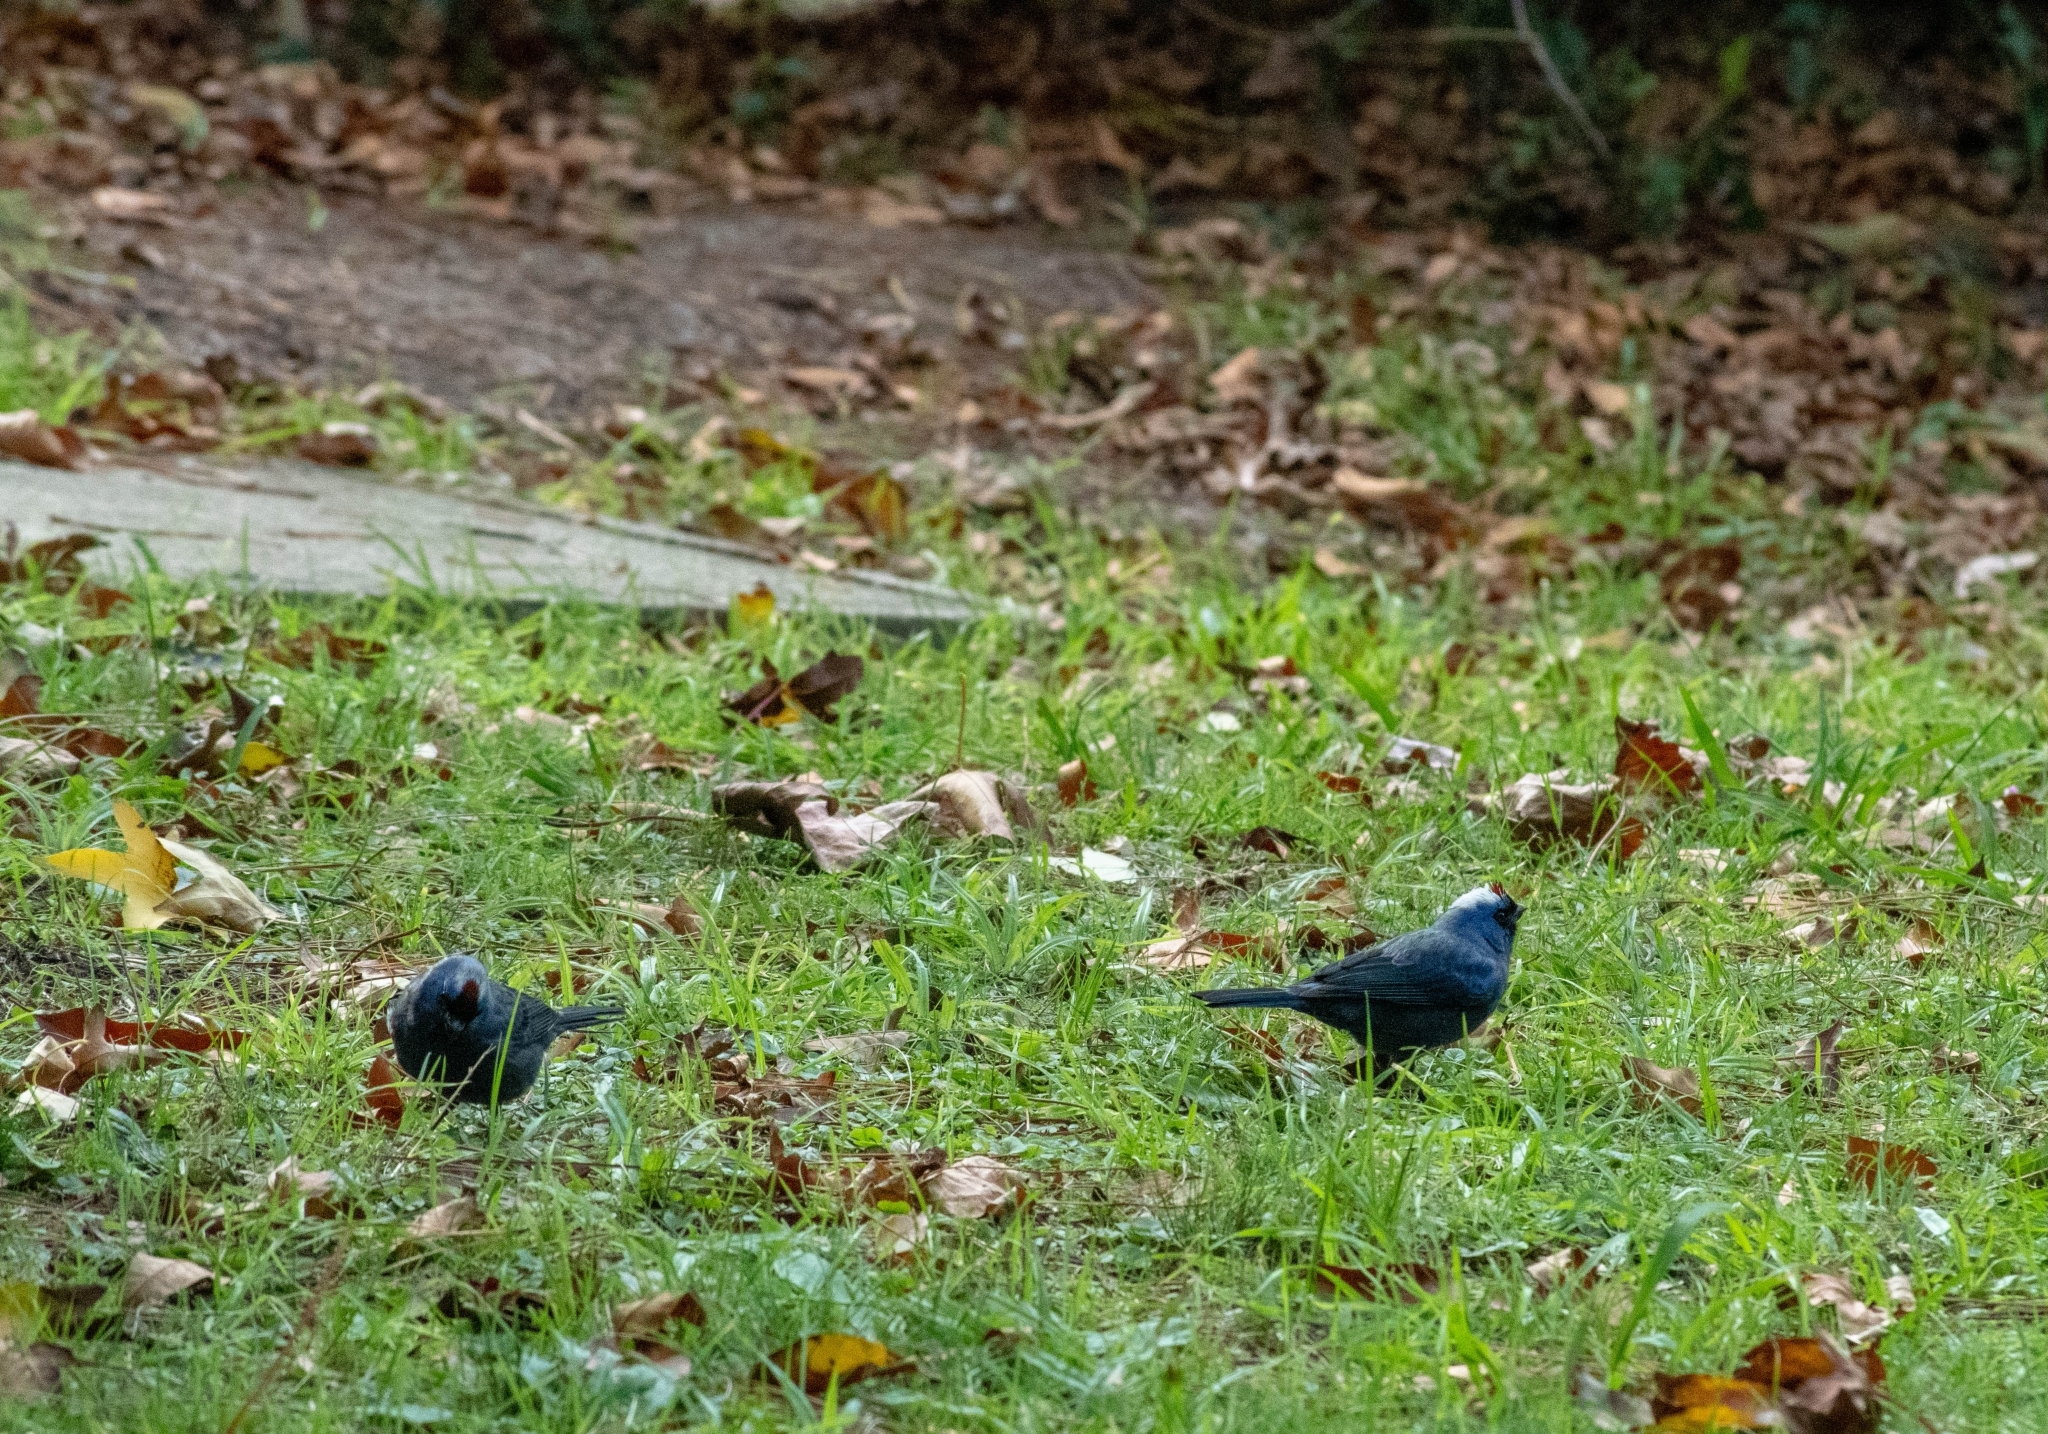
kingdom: Animalia
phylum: Chordata
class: Aves
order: Passeriformes
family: Thraupidae
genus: Stephanophorus
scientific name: Stephanophorus diadematus
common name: Diademed tanager
